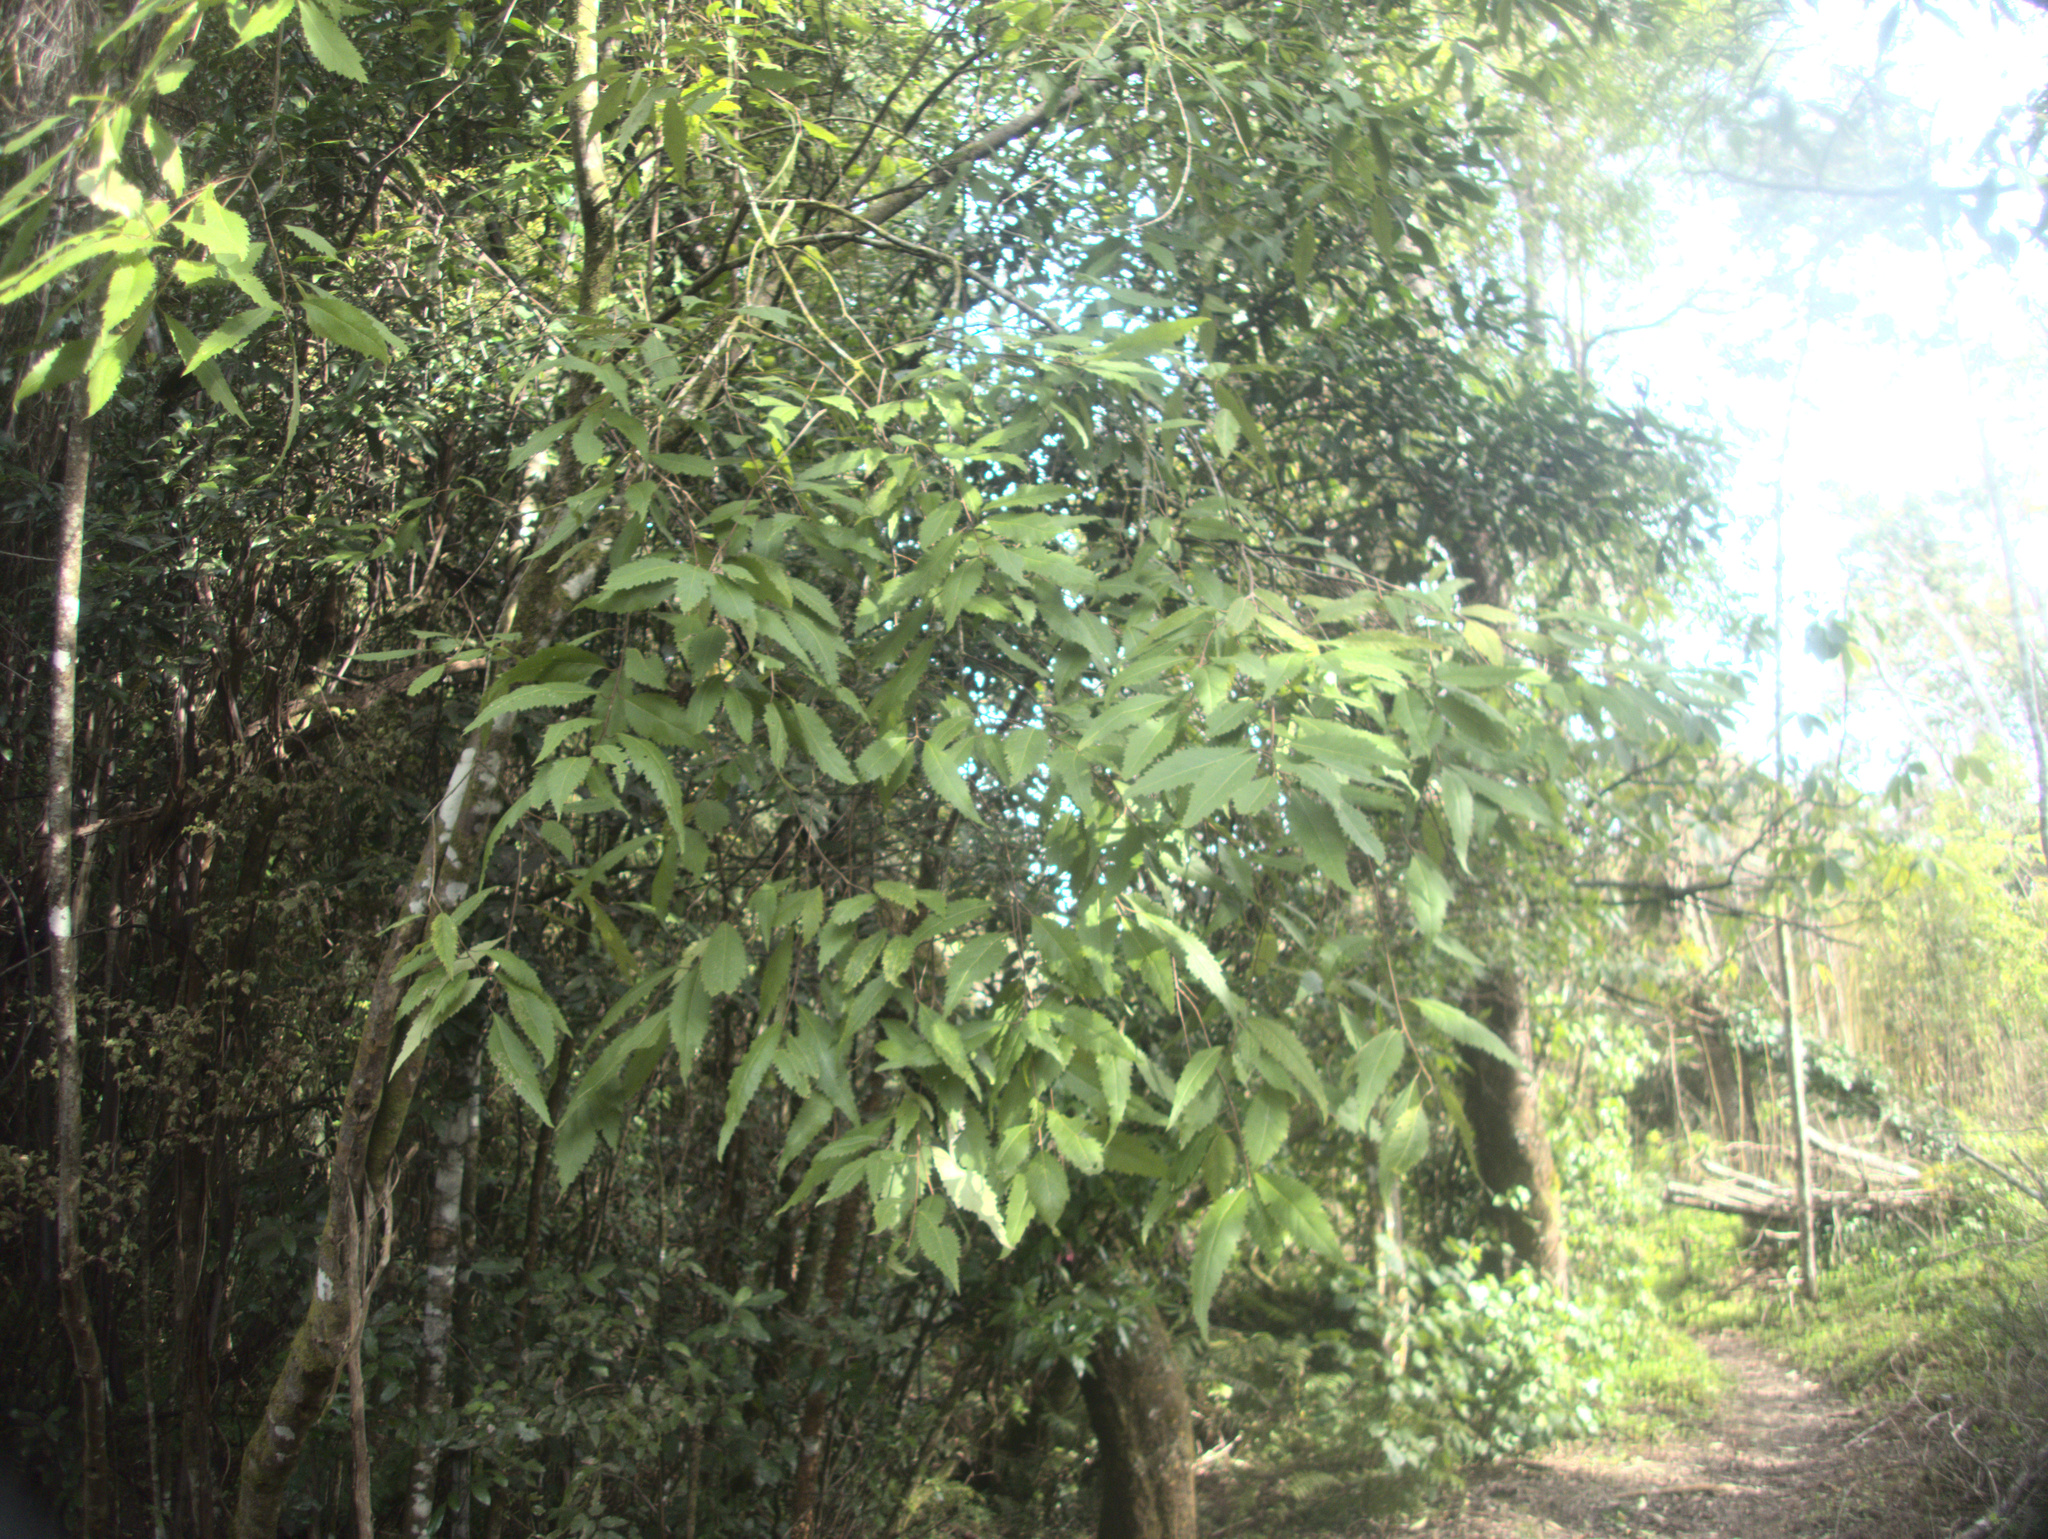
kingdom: Plantae
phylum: Tracheophyta
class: Magnoliopsida
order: Malvales
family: Malvaceae
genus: Hoheria
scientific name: Hoheria sexstylosa
